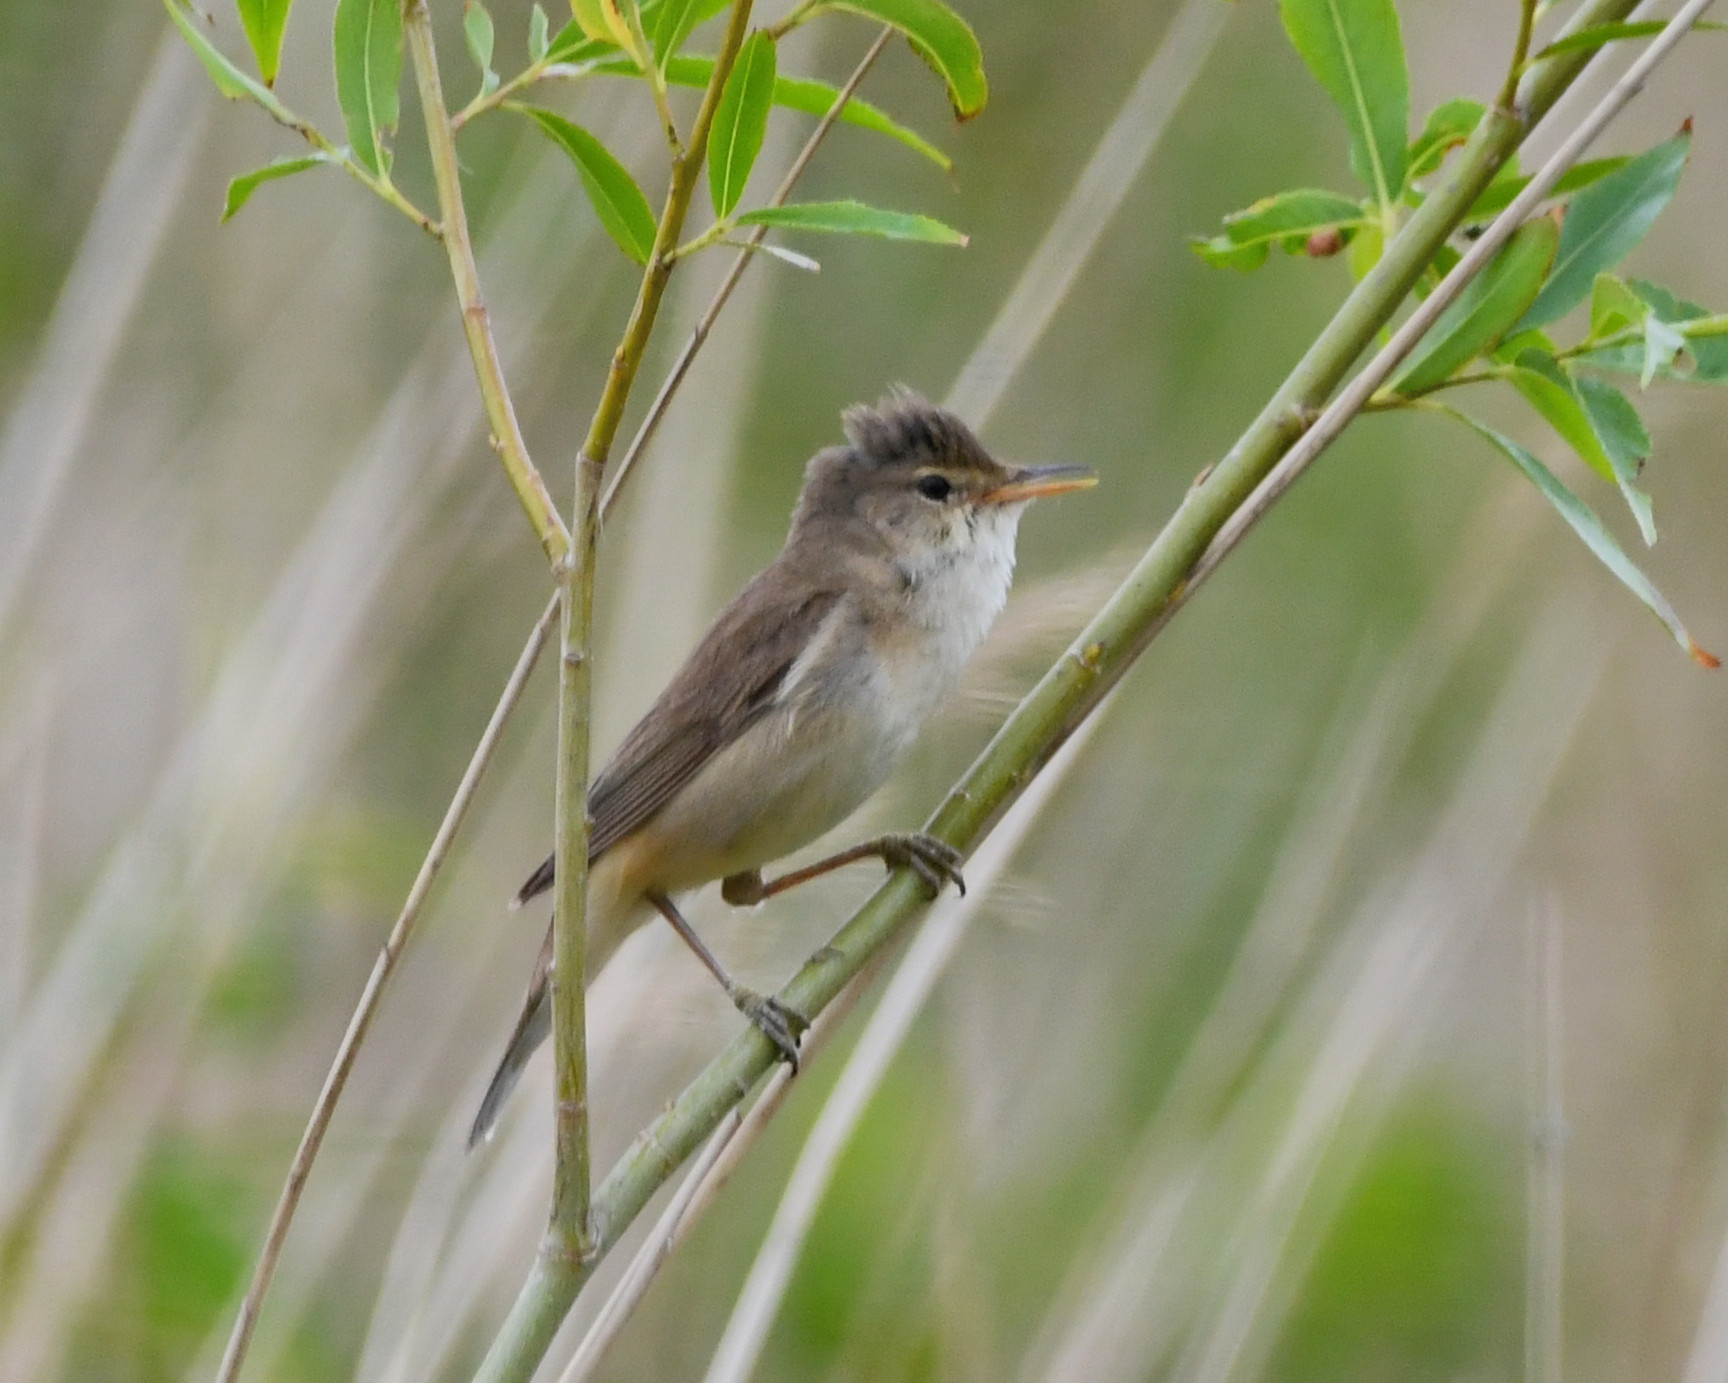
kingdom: Animalia
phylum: Chordata
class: Aves
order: Passeriformes
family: Acrocephalidae
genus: Acrocephalus
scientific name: Acrocephalus scirpaceus
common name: Eurasian reed warbler
